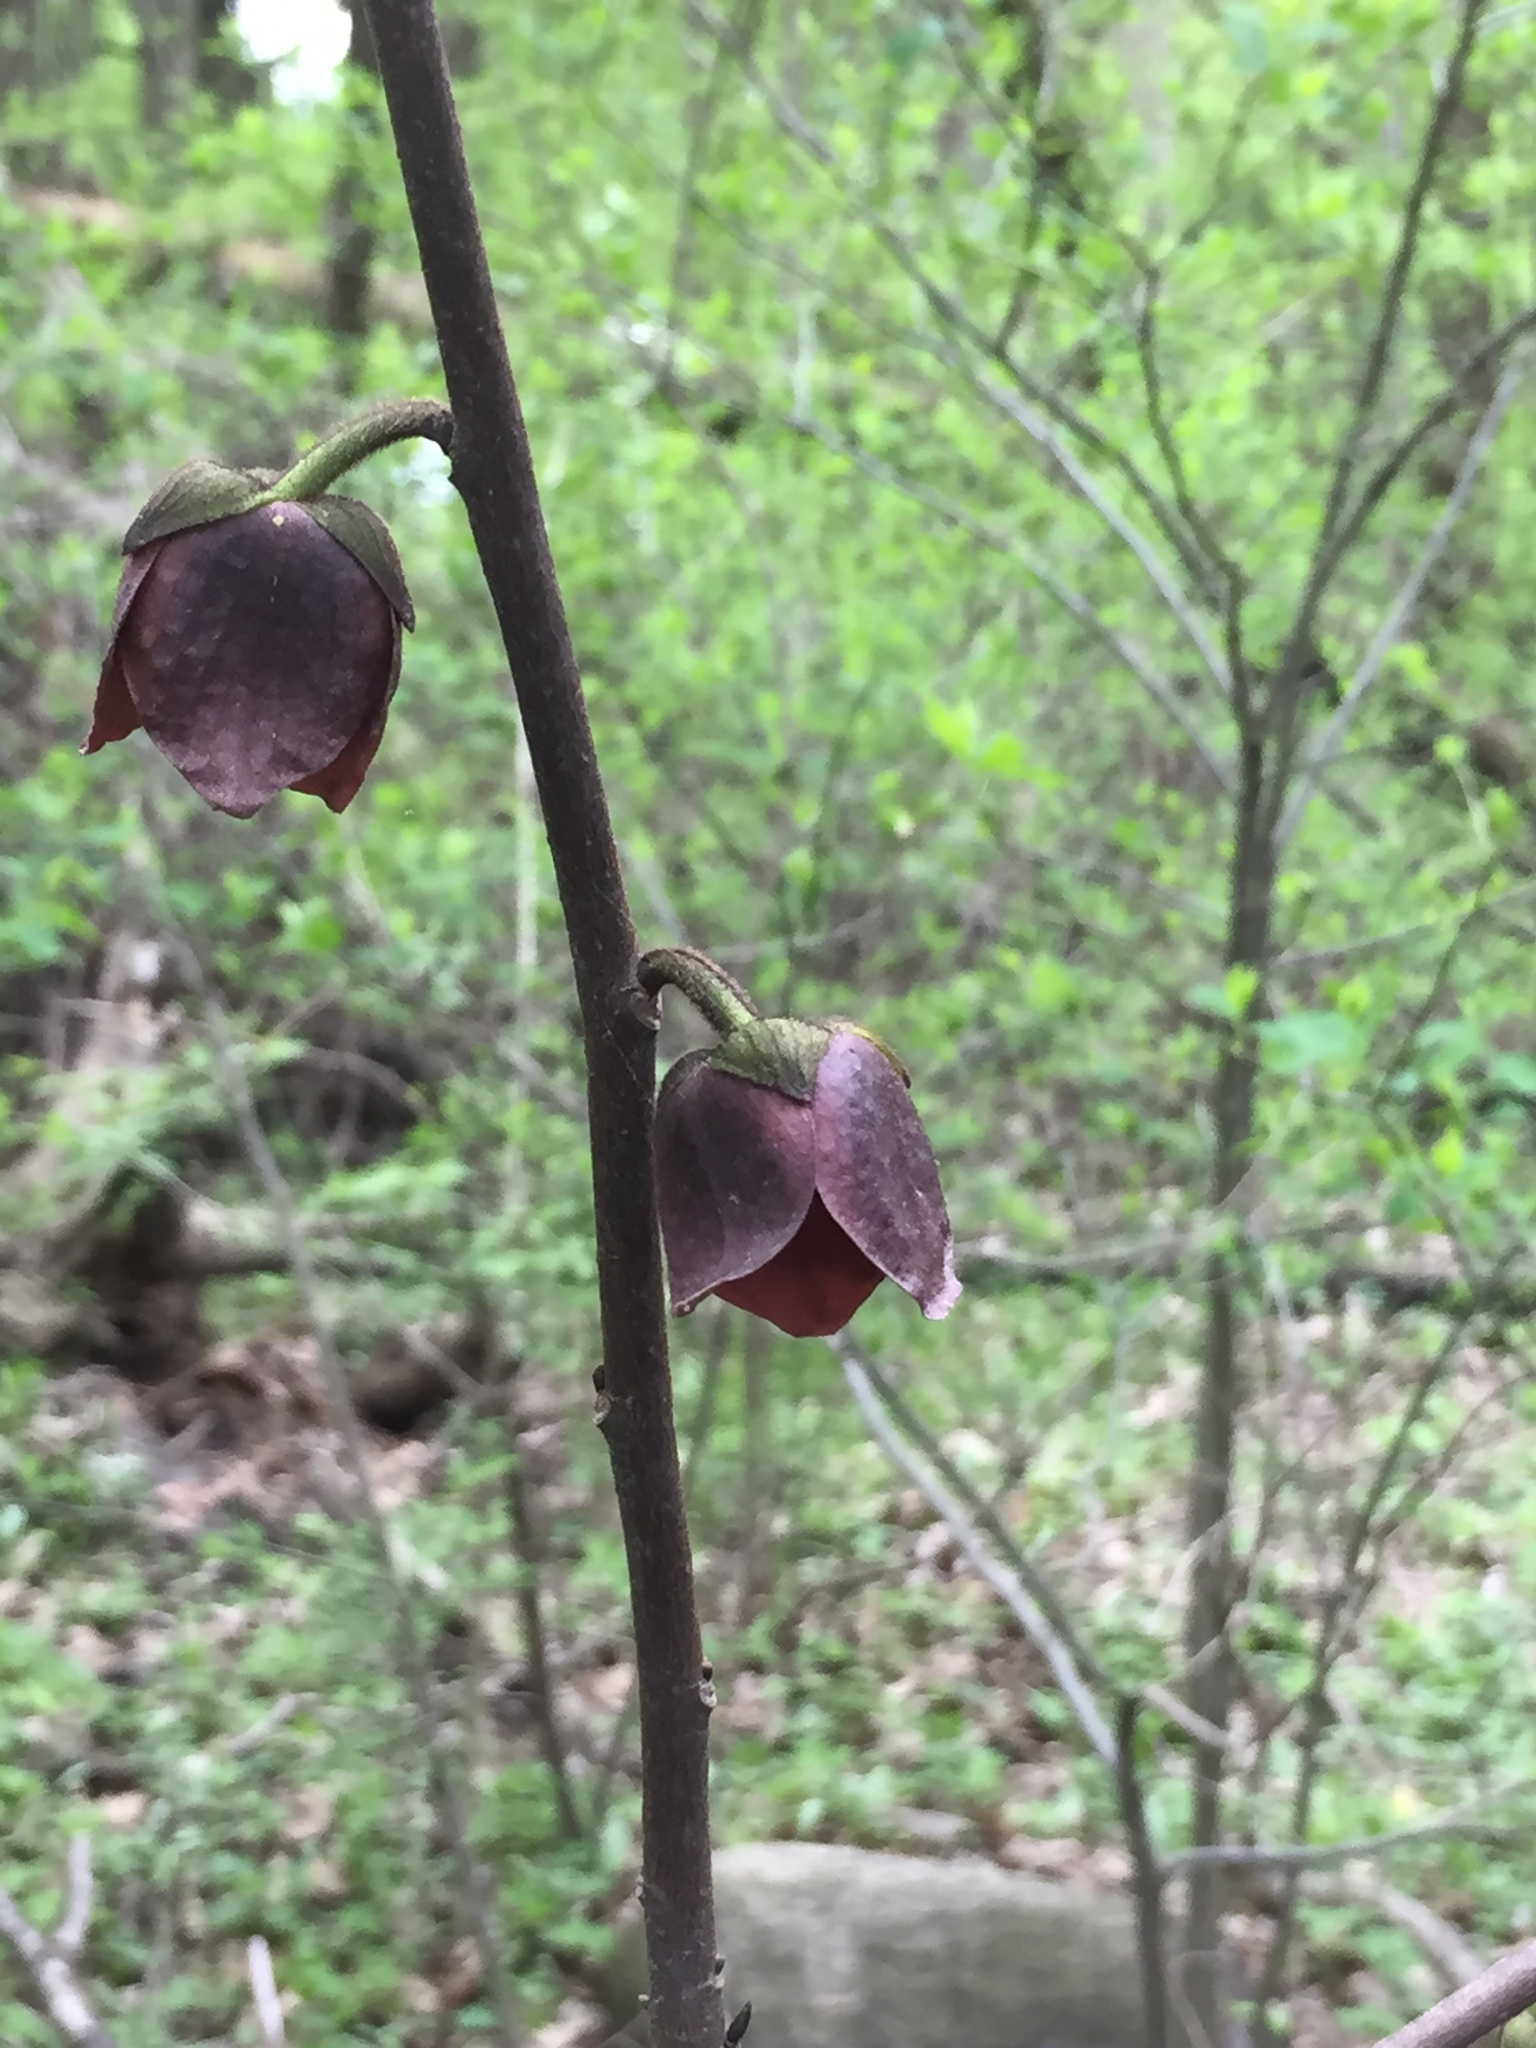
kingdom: Plantae
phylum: Tracheophyta
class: Magnoliopsida
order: Magnoliales
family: Annonaceae
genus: Asimina
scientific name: Asimina triloba
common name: Dog-banana
